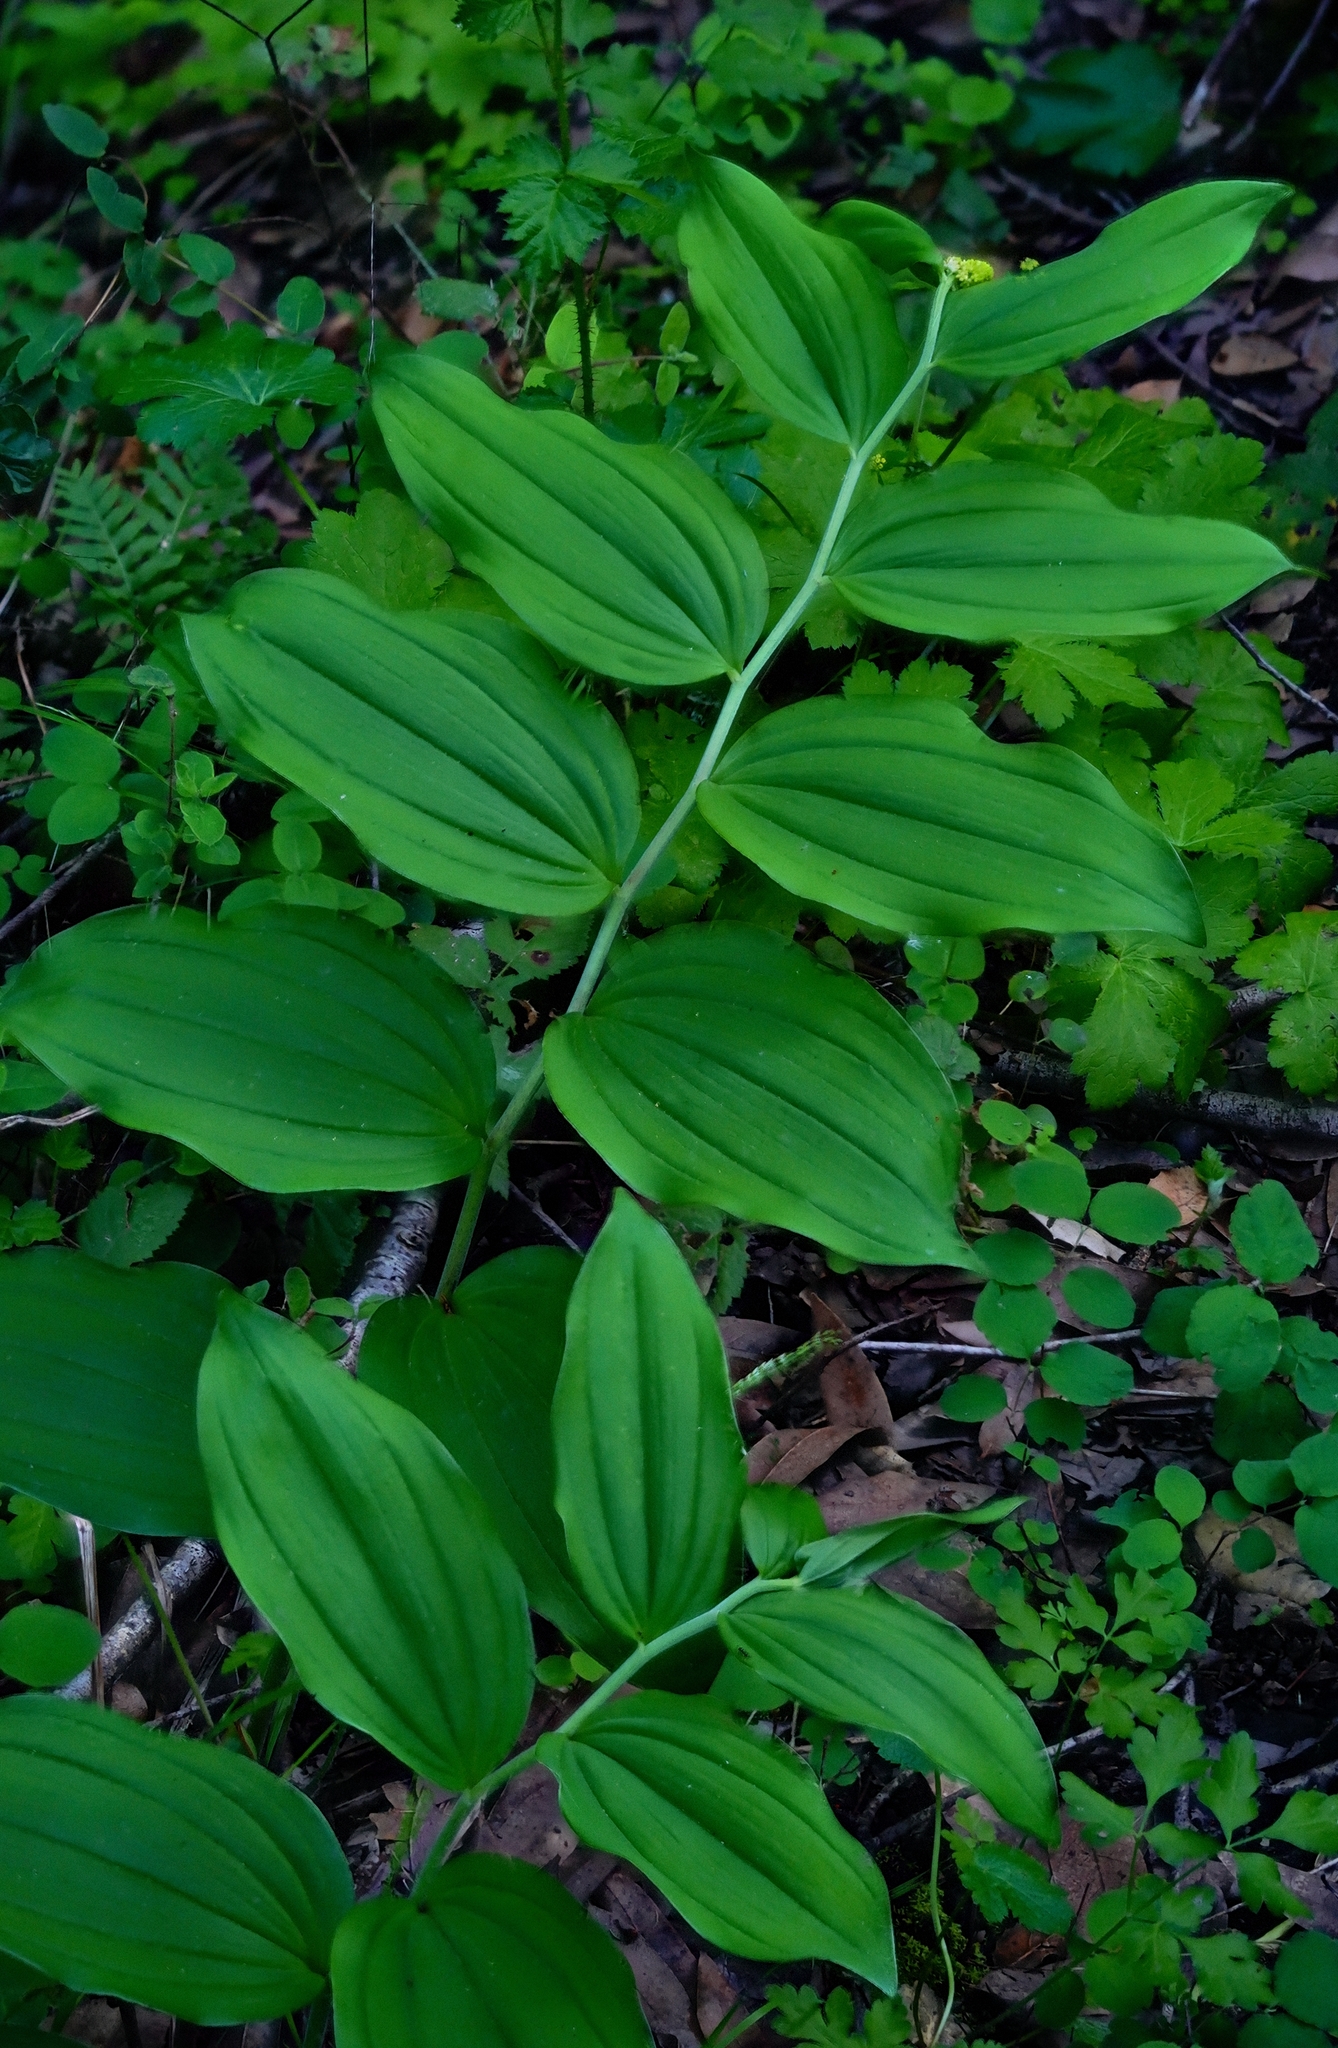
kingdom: Plantae
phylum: Tracheophyta
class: Liliopsida
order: Asparagales
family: Asparagaceae
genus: Maianthemum
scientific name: Maianthemum racemosum
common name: False spikenard
